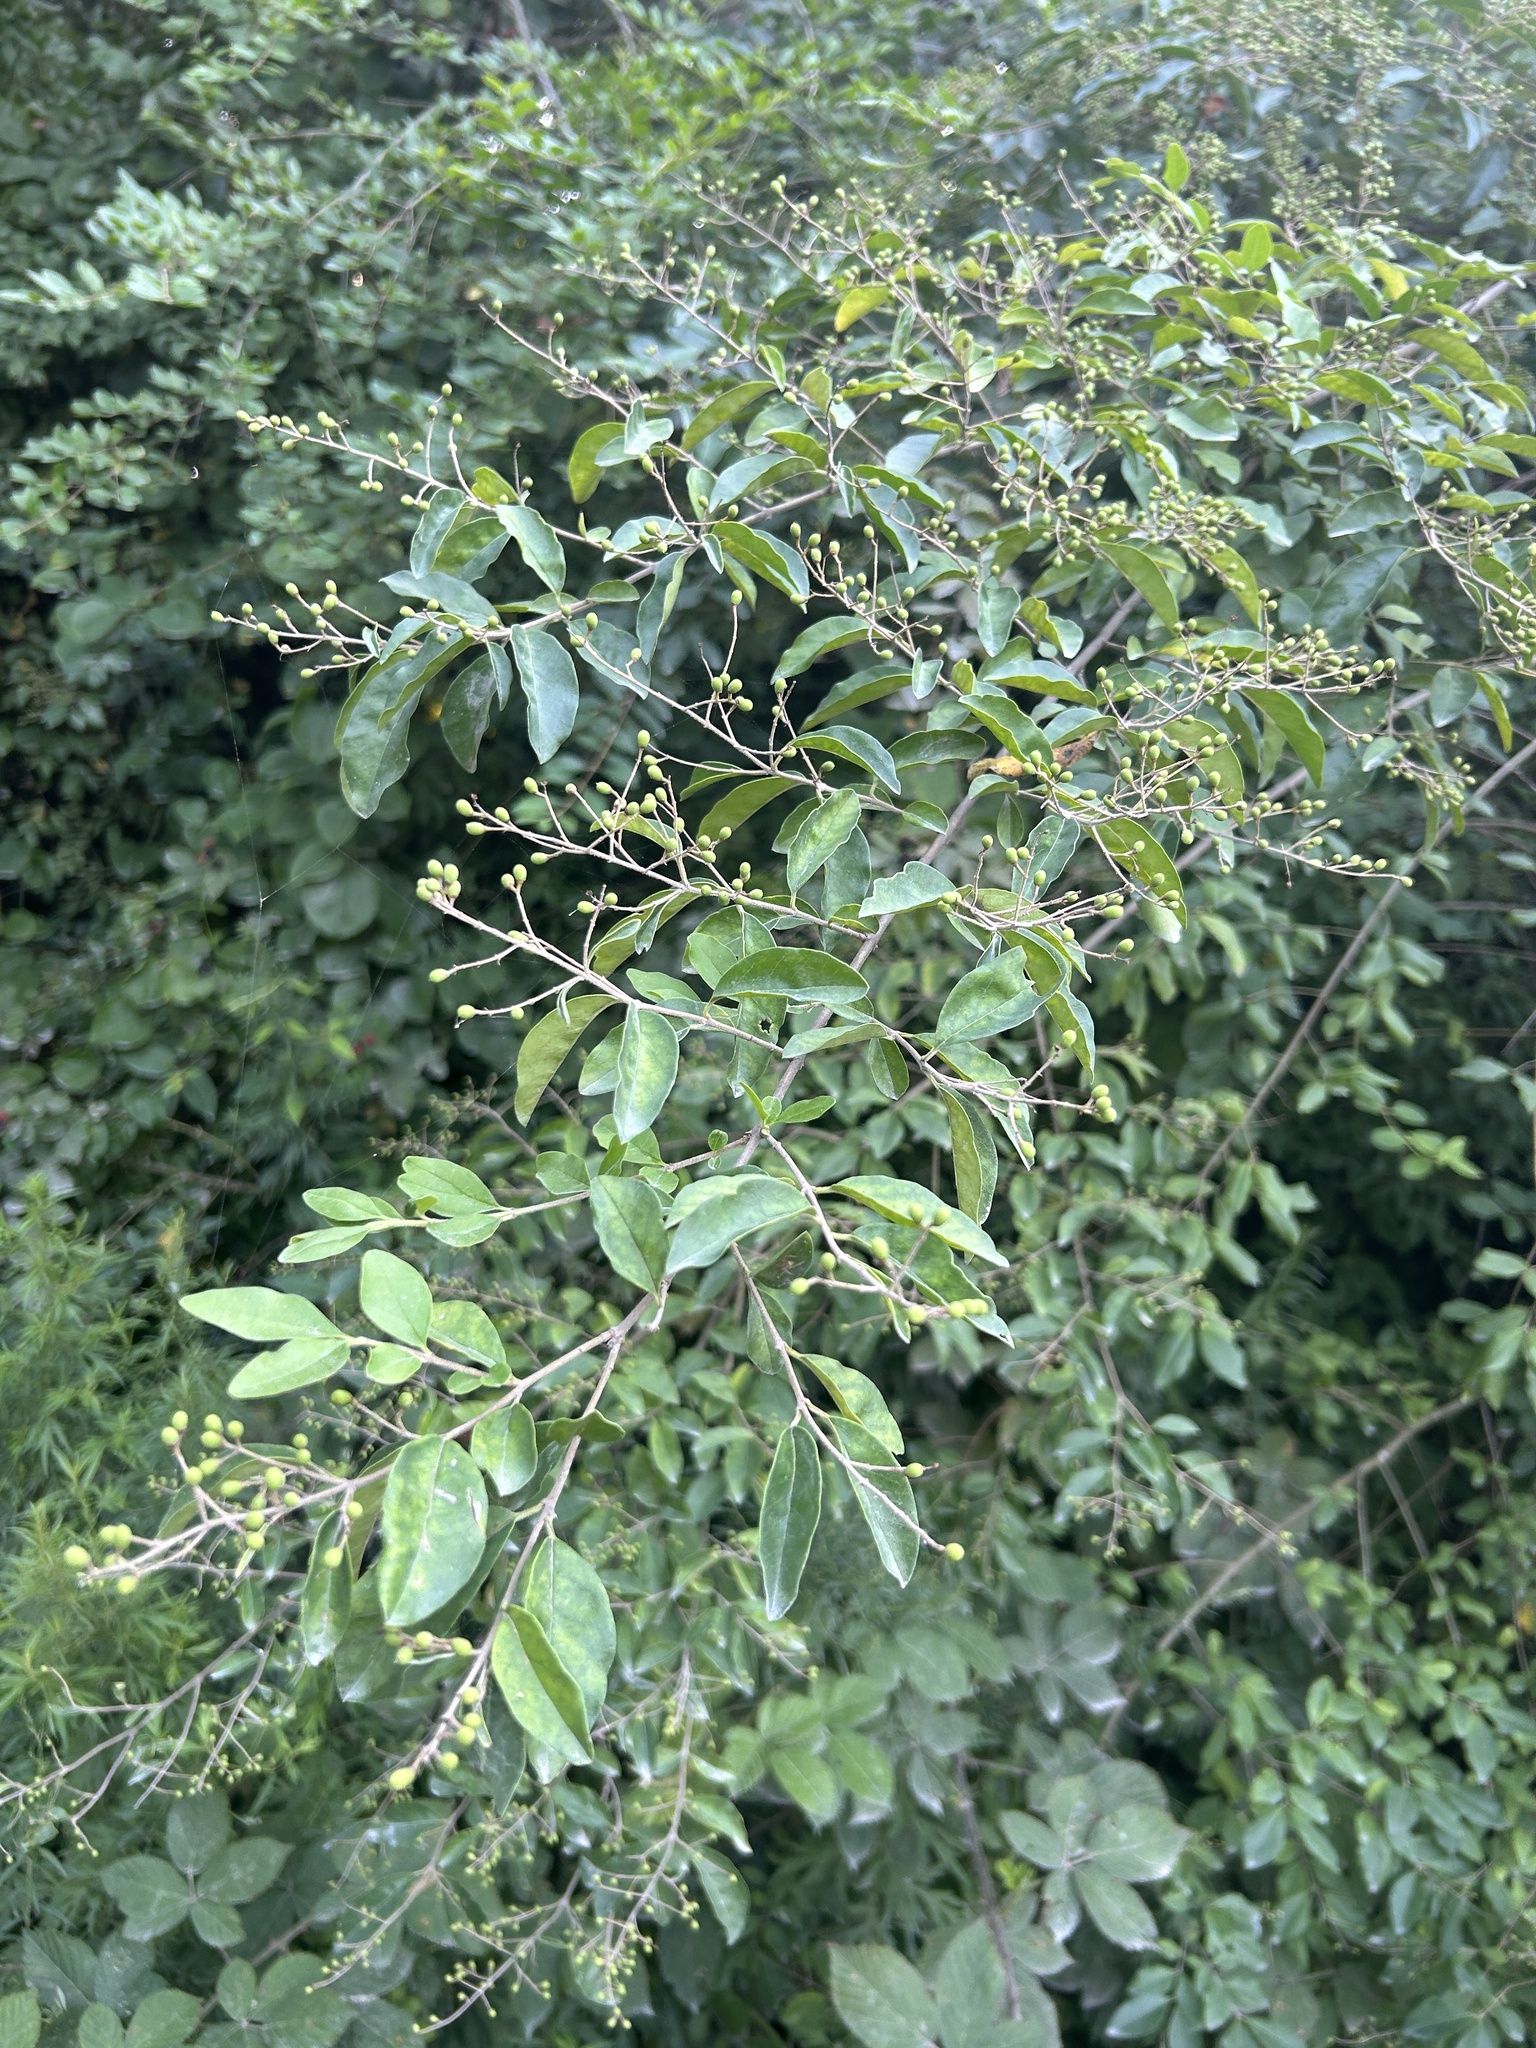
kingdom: Plantae
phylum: Tracheophyta
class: Magnoliopsida
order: Lamiales
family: Oleaceae
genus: Ligustrum
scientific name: Ligustrum sinense
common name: Chinese privet
